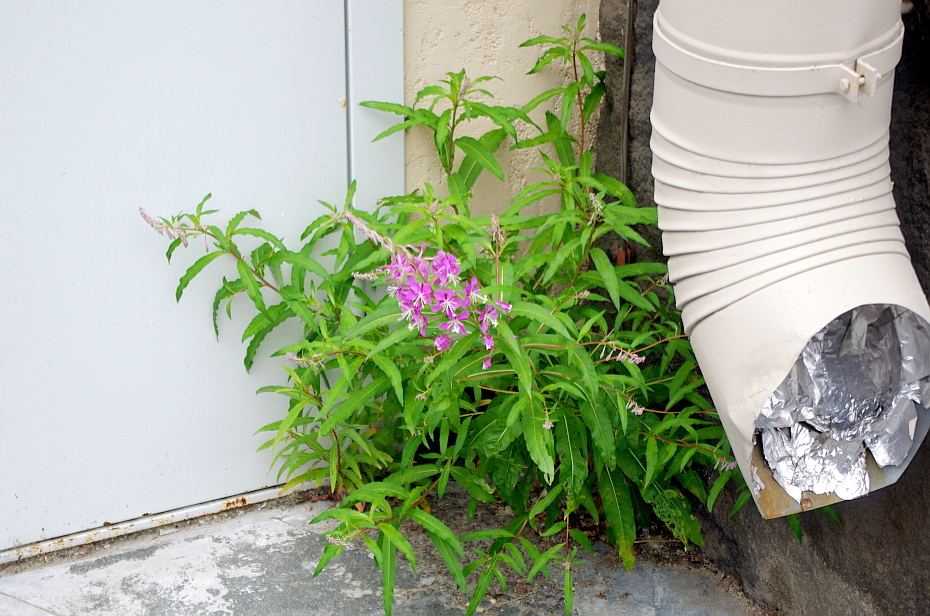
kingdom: Plantae
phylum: Tracheophyta
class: Magnoliopsida
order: Myrtales
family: Onagraceae
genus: Chamaenerion
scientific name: Chamaenerion angustifolium
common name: Fireweed
